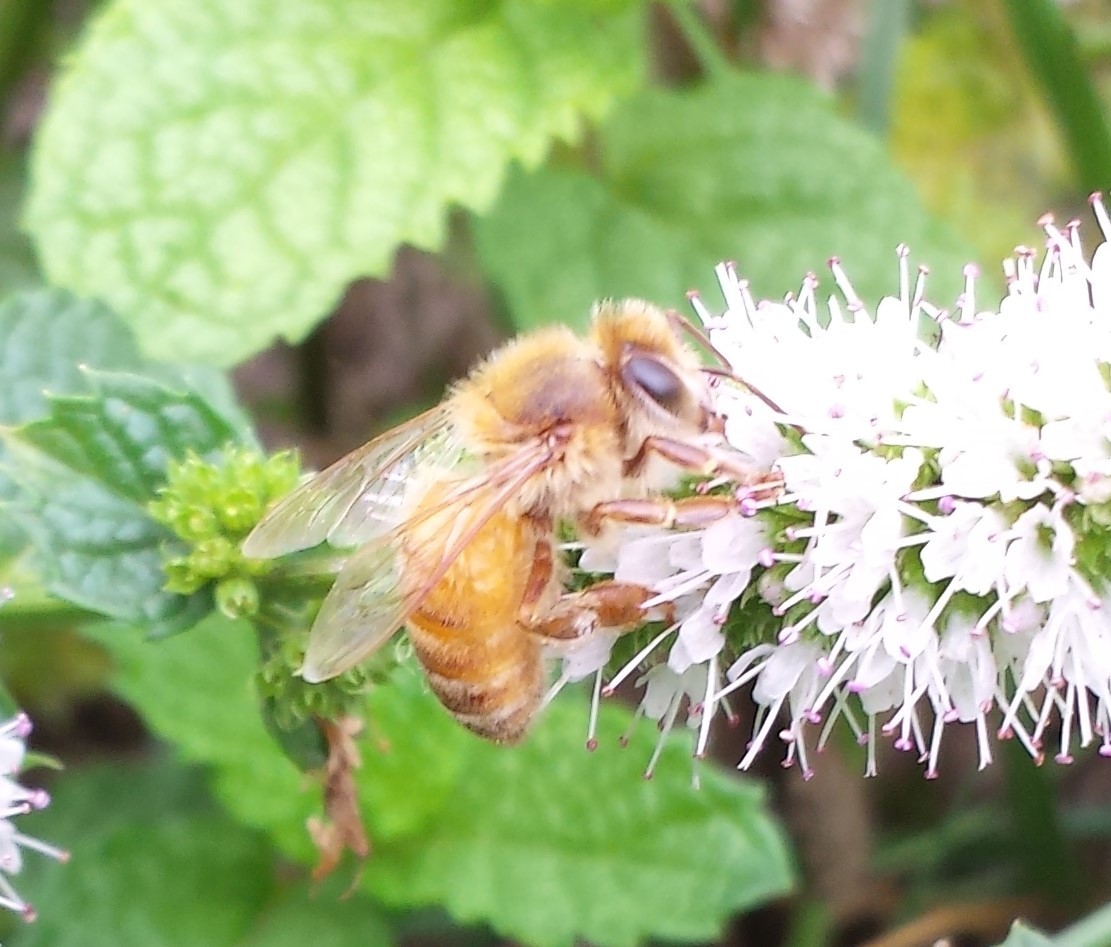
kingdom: Animalia
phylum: Arthropoda
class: Insecta
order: Hymenoptera
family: Apidae
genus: Apis
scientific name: Apis mellifera
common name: Honey bee
